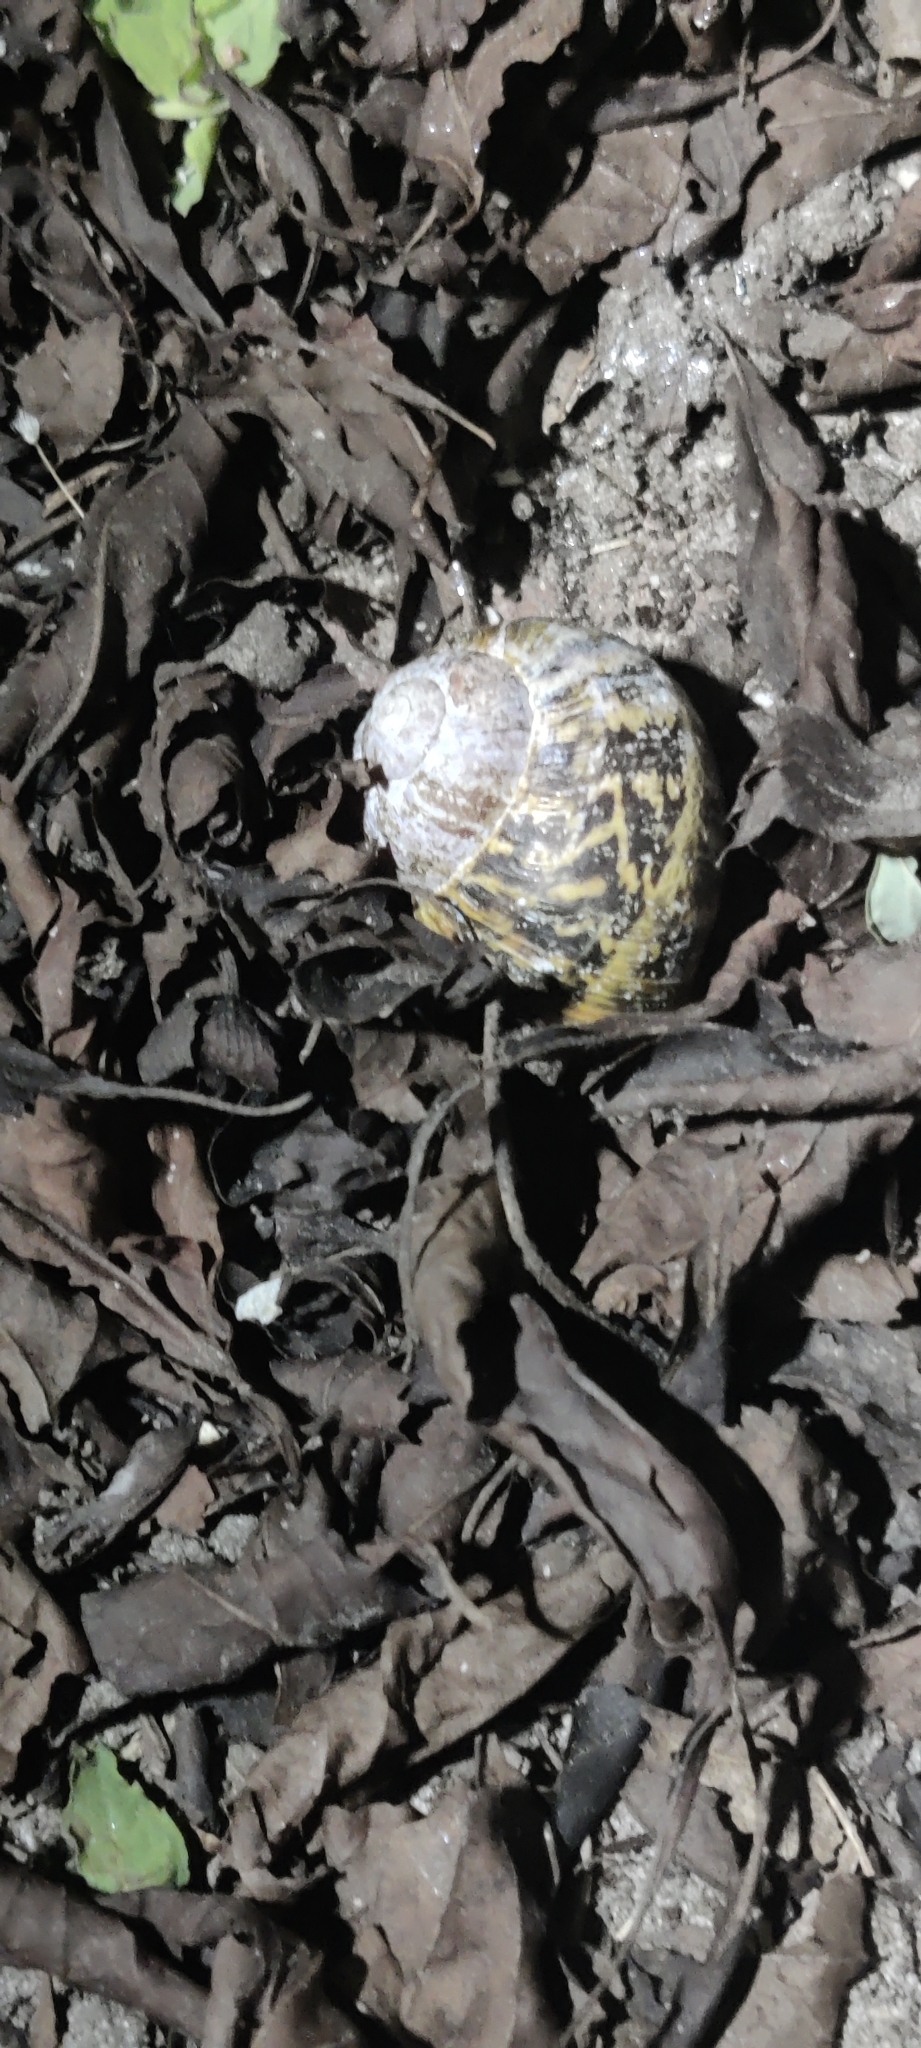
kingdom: Animalia
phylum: Mollusca
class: Gastropoda
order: Stylommatophora
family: Helicidae
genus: Cornu
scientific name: Cornu aspersum
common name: Brown garden snail
